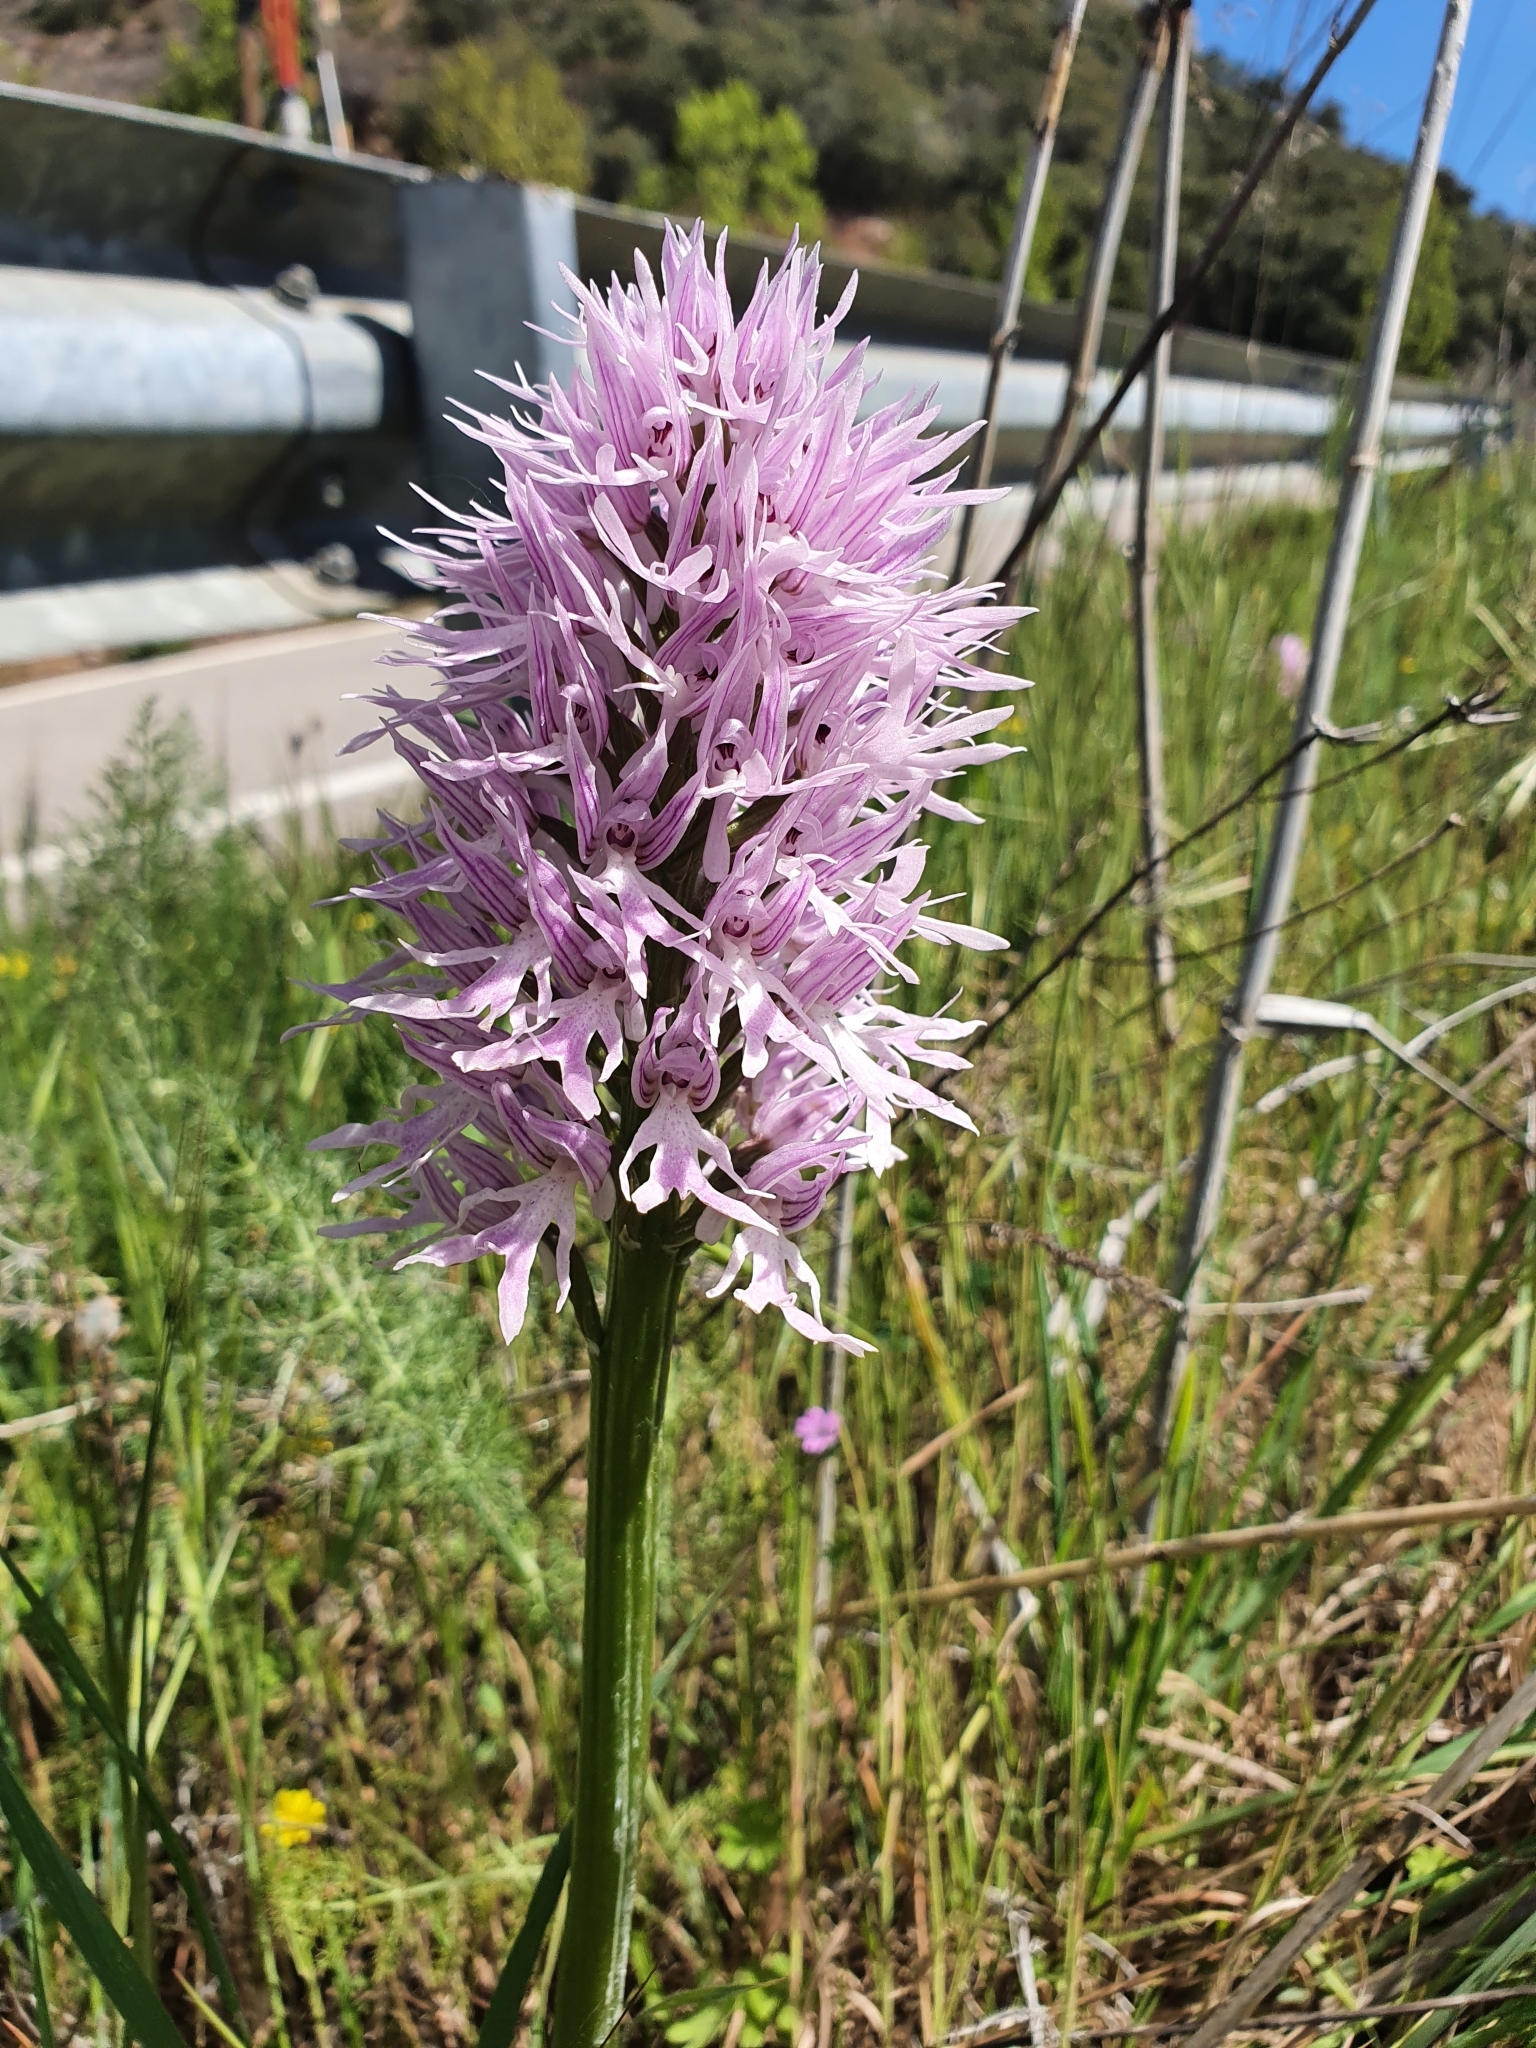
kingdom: Plantae
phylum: Tracheophyta
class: Liliopsida
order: Asparagales
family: Orchidaceae
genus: Orchis
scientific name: Orchis italica
